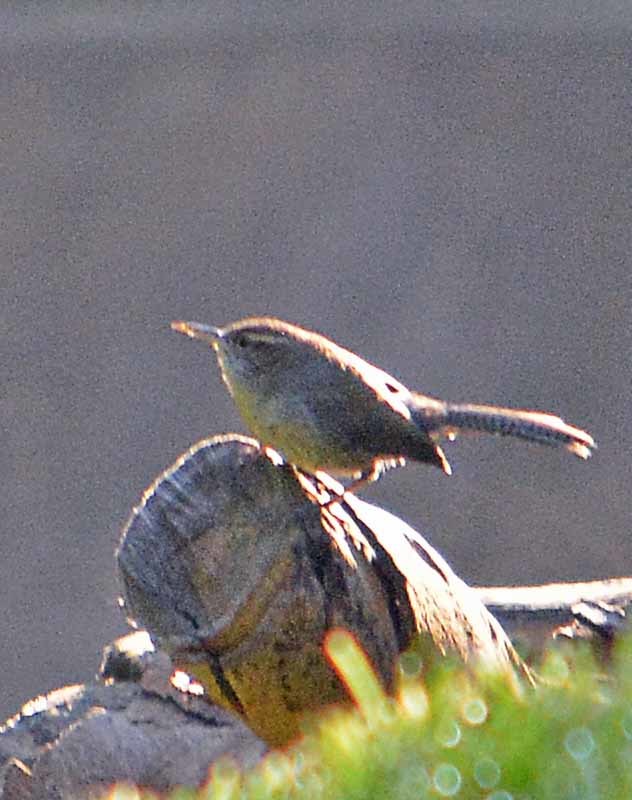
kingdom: Animalia
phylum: Chordata
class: Aves
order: Passeriformes
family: Troglodytidae
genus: Thryomanes
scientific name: Thryomanes bewickii
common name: Bewick's wren
